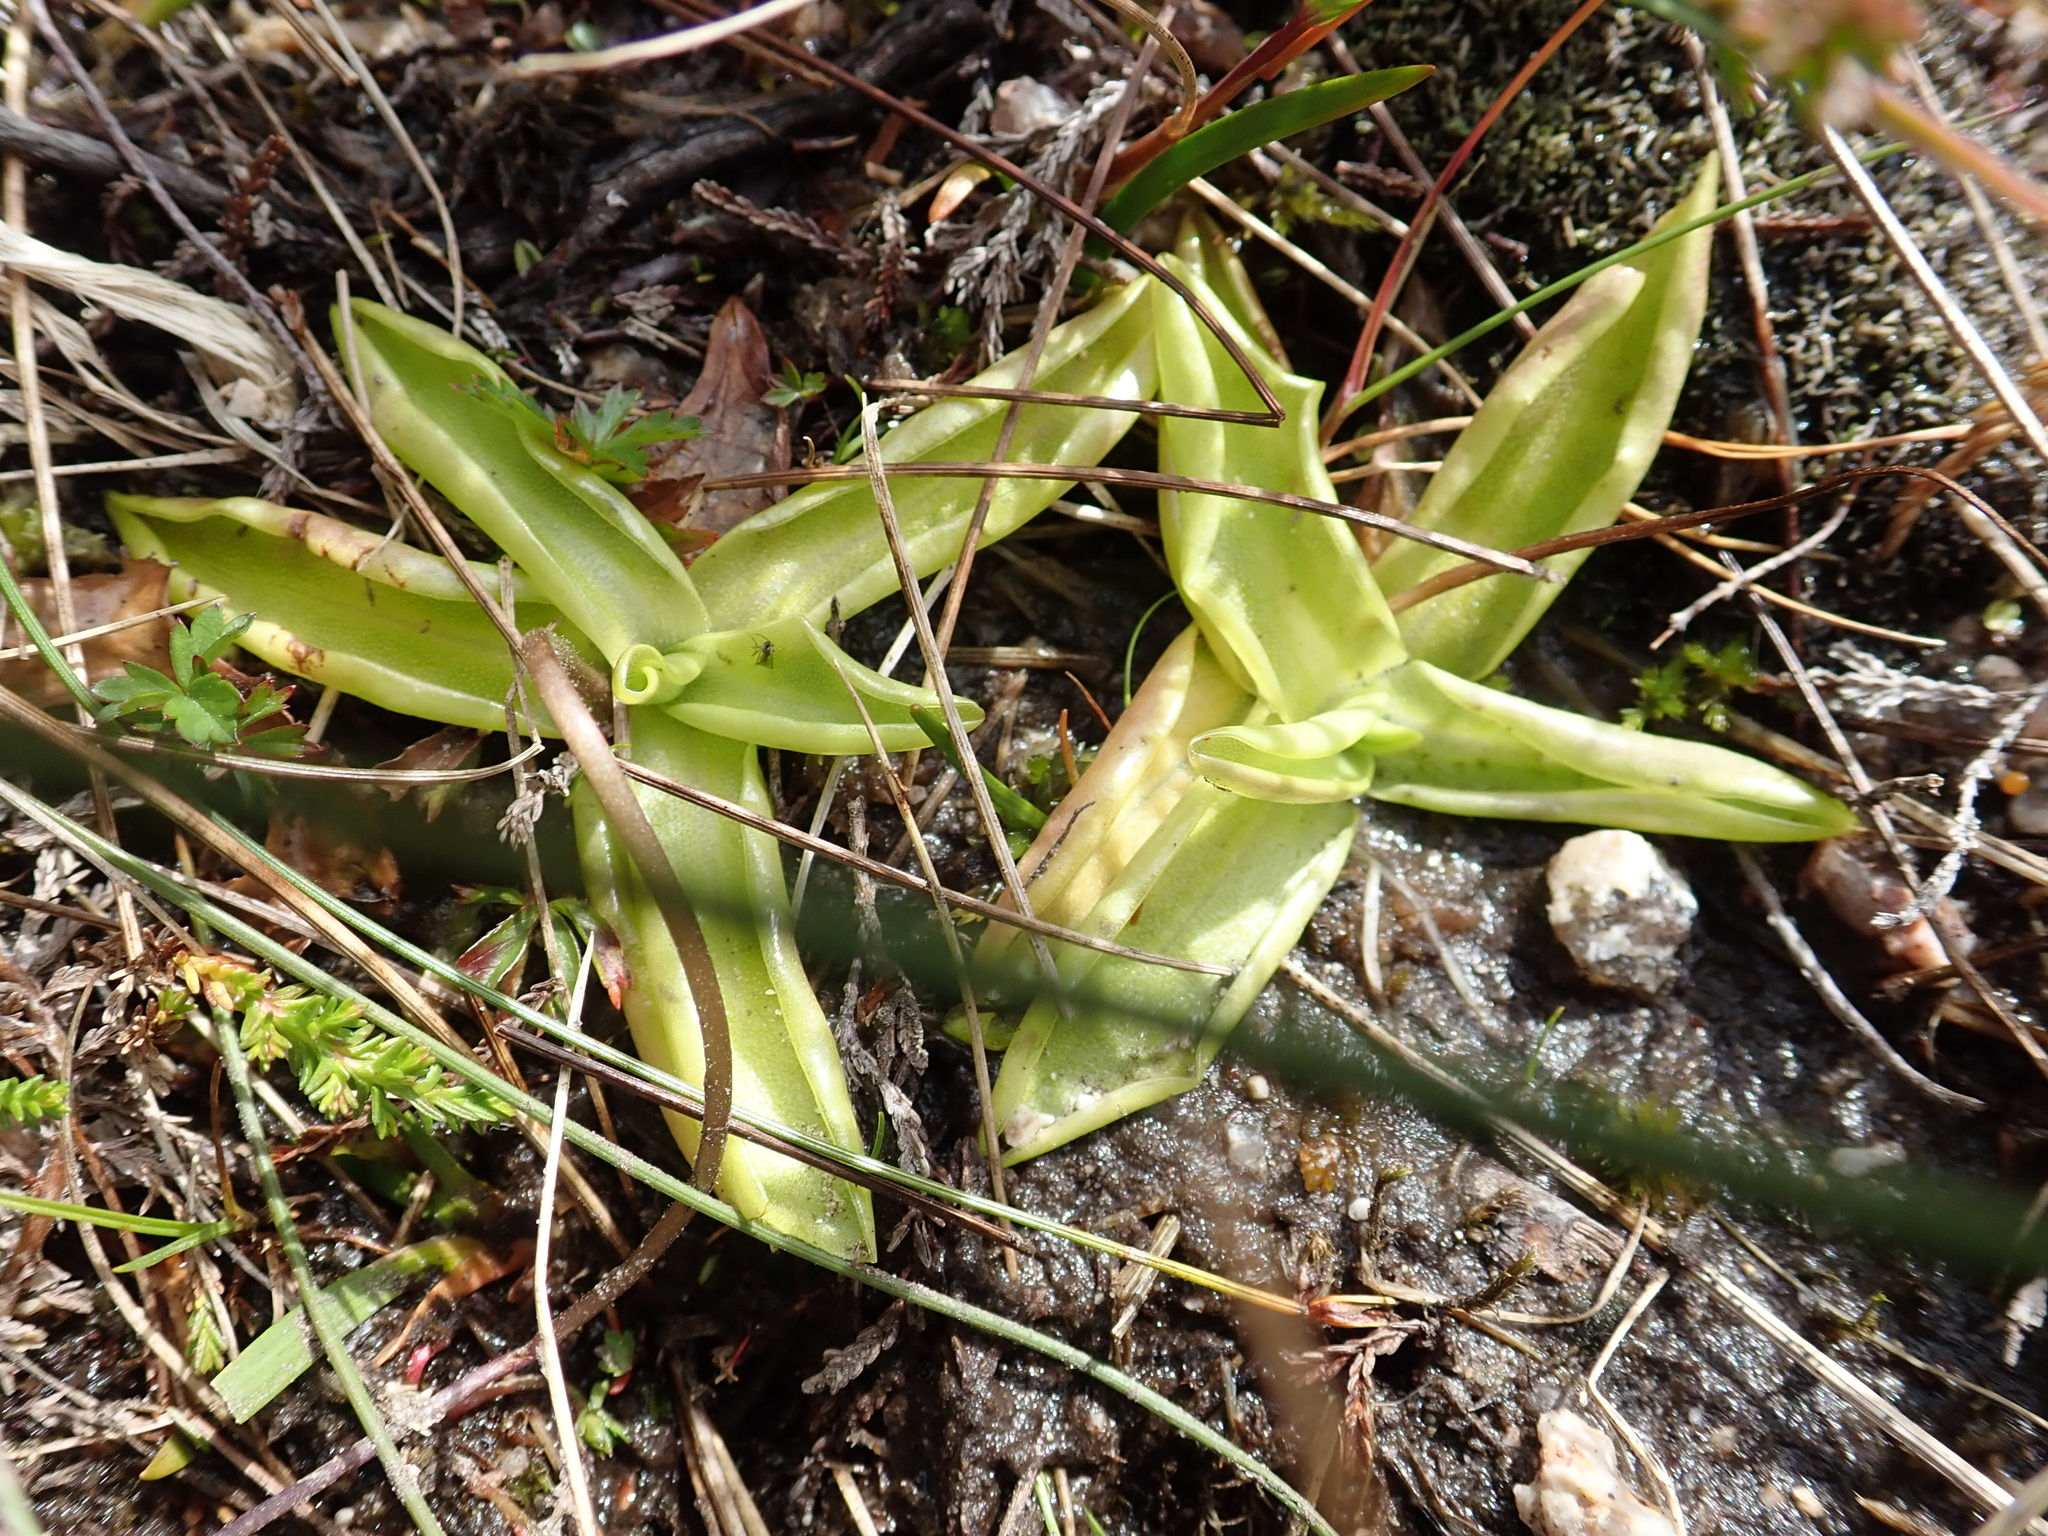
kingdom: Plantae
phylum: Tracheophyta
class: Magnoliopsida
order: Lamiales
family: Lentibulariaceae
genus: Pinguicula
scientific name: Pinguicula vulgaris
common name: Common butterwort
